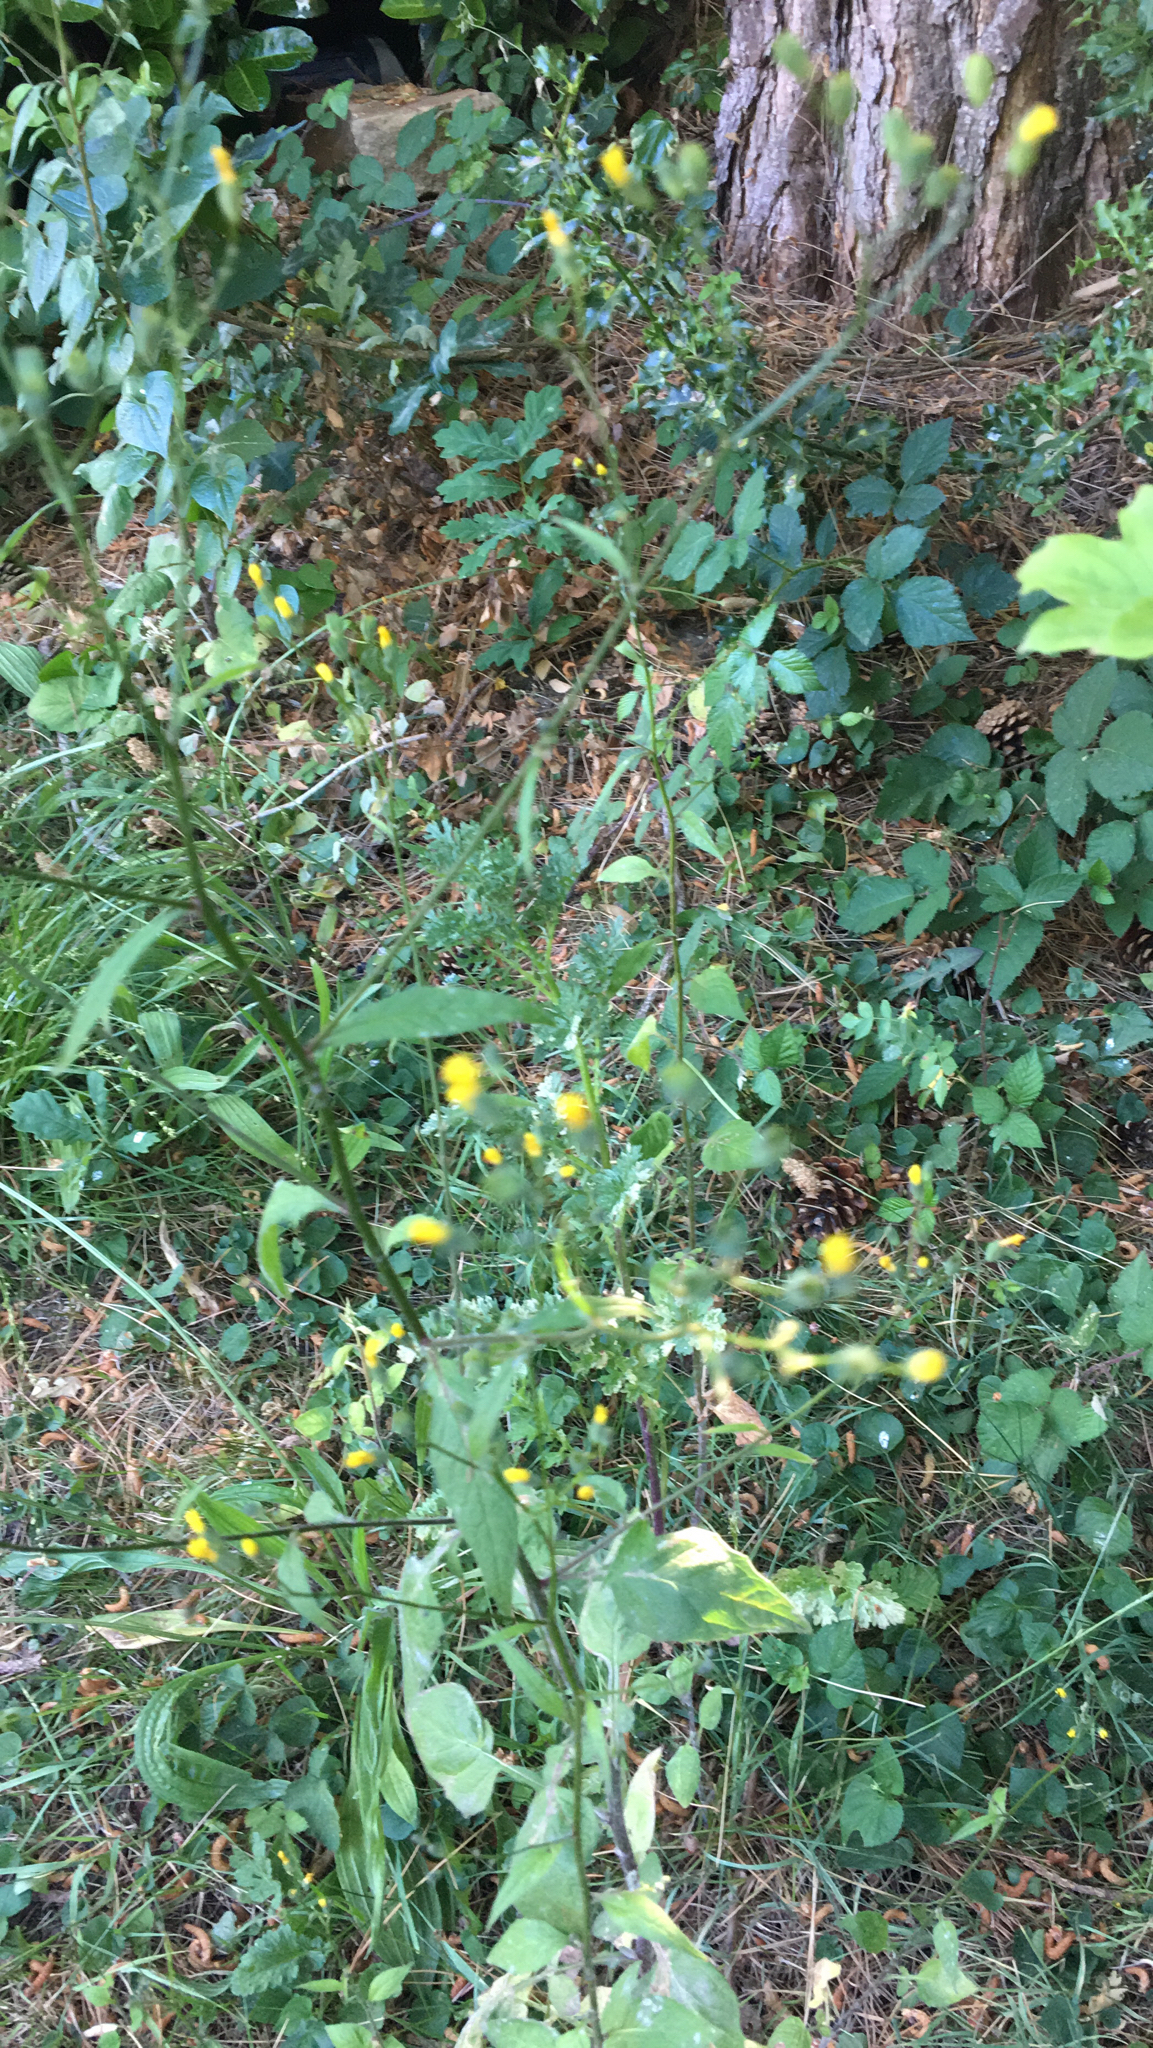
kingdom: Plantae
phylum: Tracheophyta
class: Magnoliopsida
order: Asterales
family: Asteraceae
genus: Lapsana
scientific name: Lapsana communis
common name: Nipplewort
